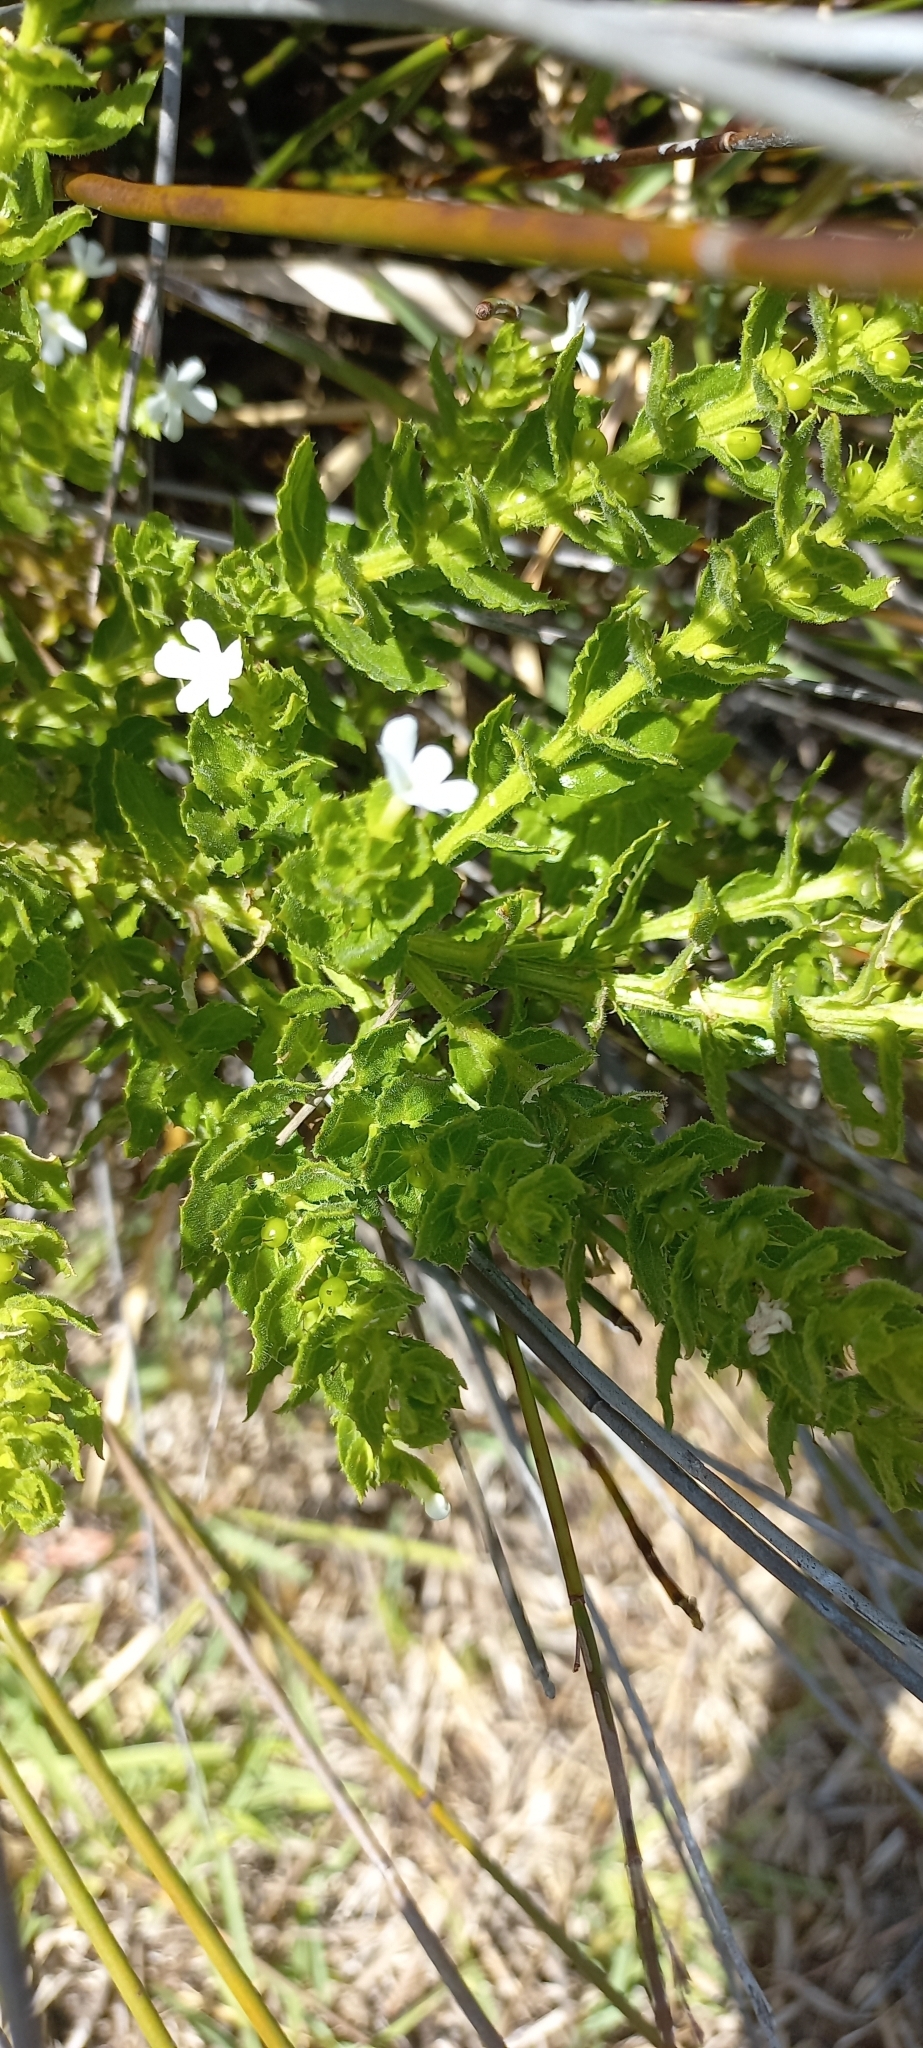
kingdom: Plantae
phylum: Tracheophyta
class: Magnoliopsida
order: Lamiales
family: Scrophulariaceae
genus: Oftia
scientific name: Oftia africana
